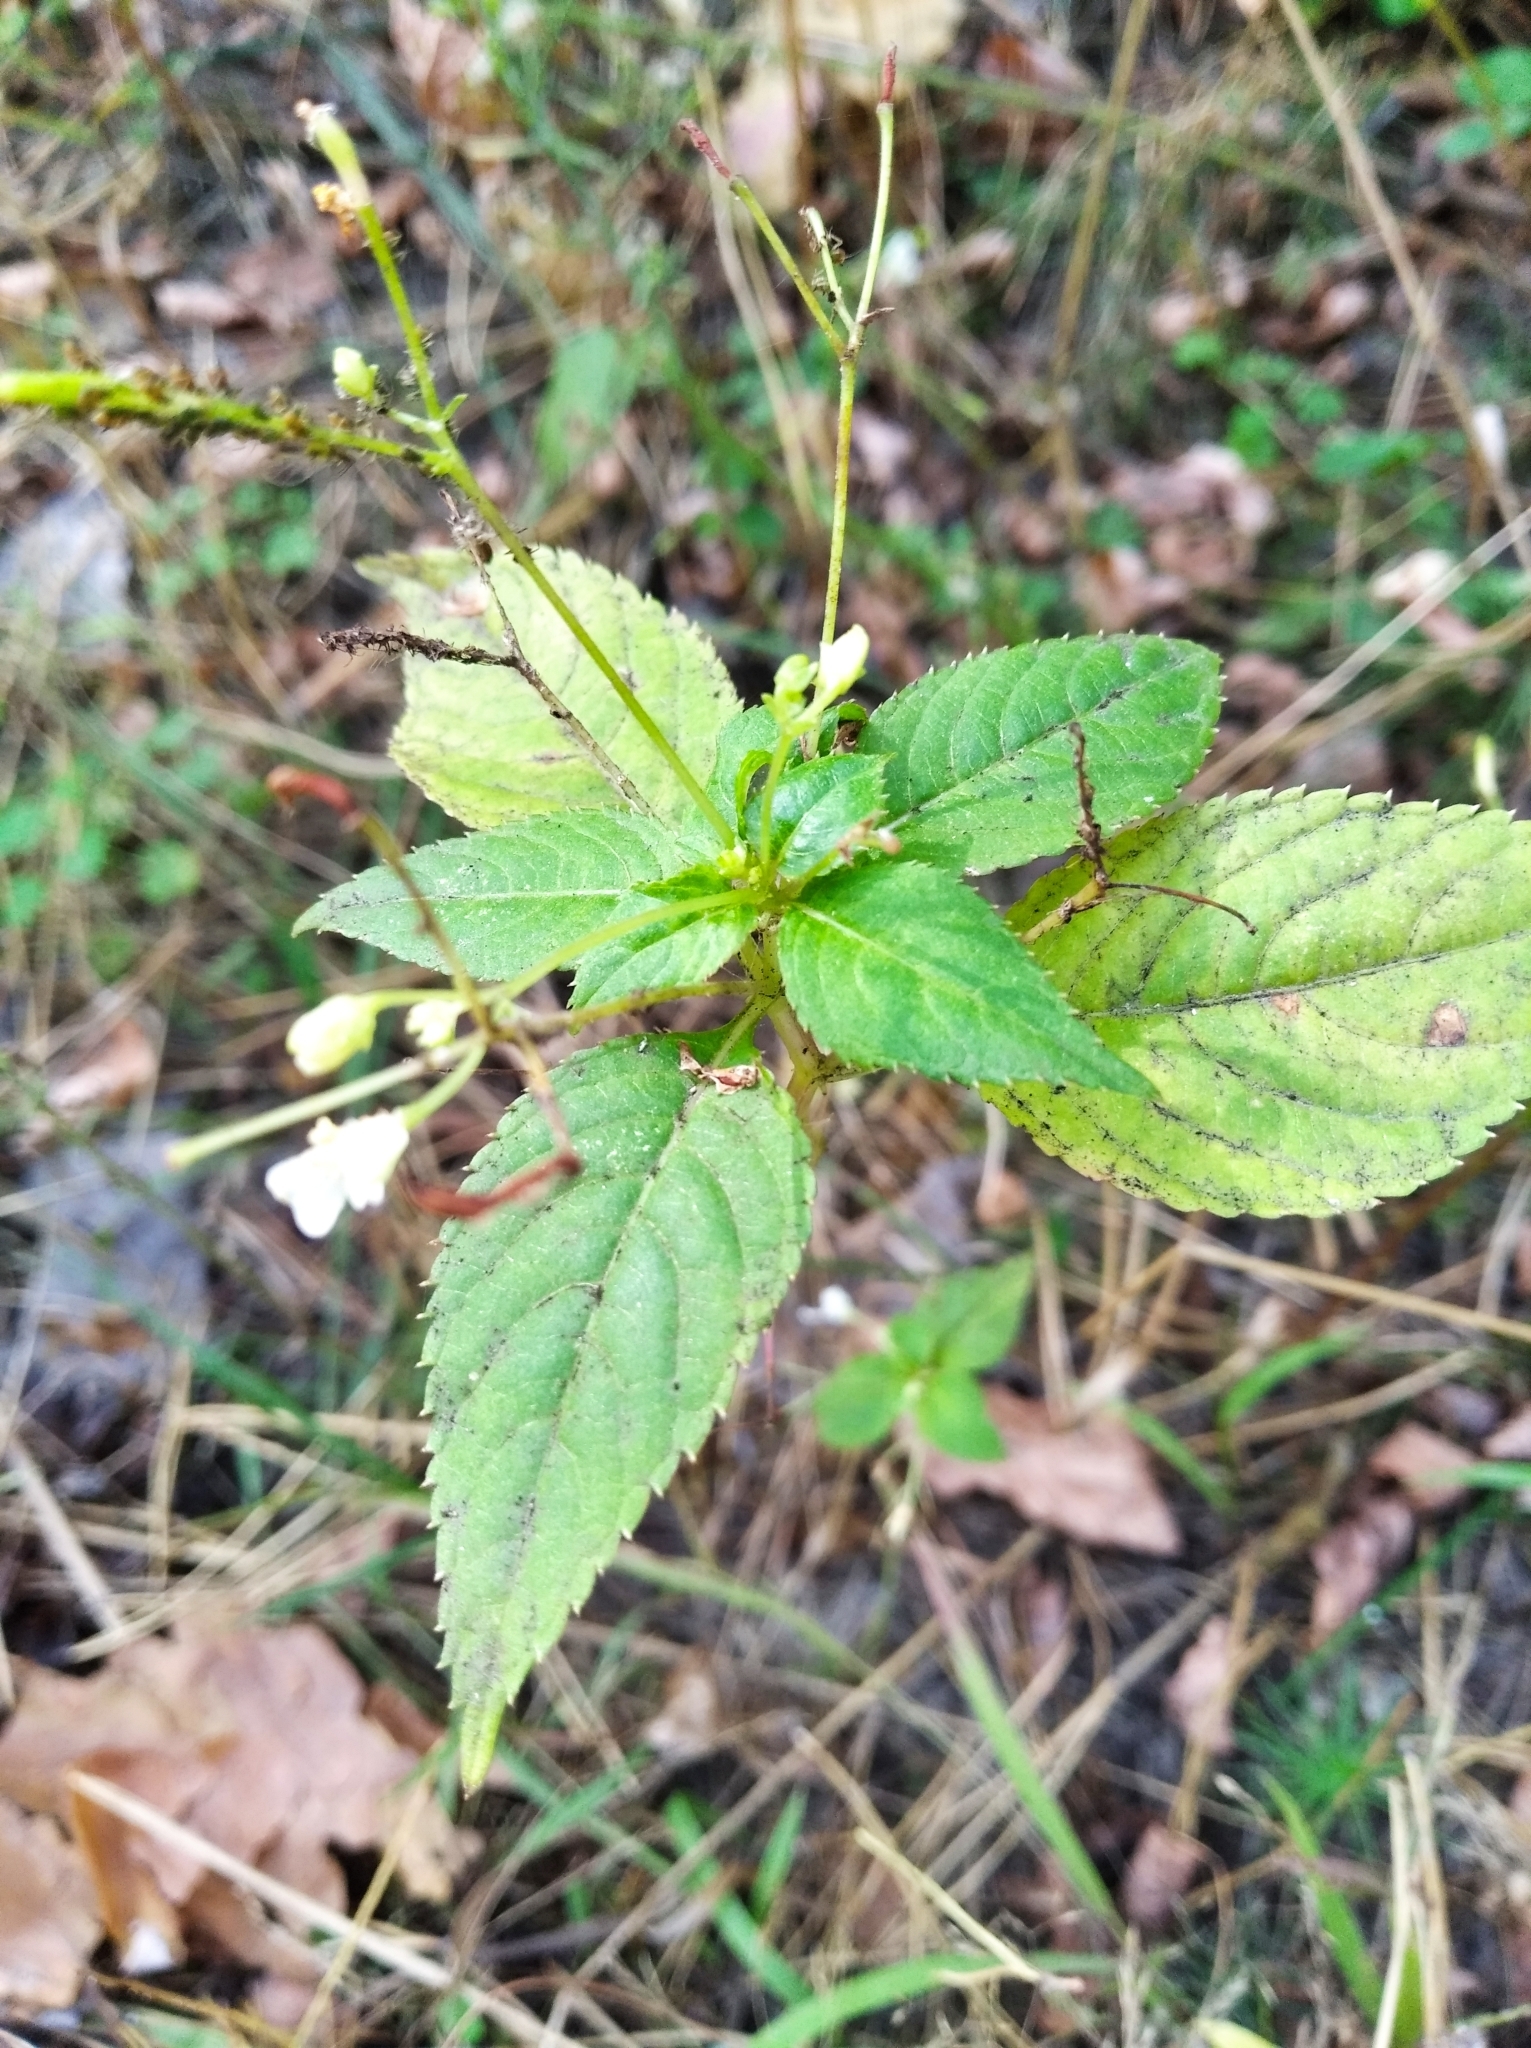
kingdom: Plantae
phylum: Tracheophyta
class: Magnoliopsida
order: Ericales
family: Balsaminaceae
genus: Impatiens
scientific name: Impatiens parviflora
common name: Small balsam
